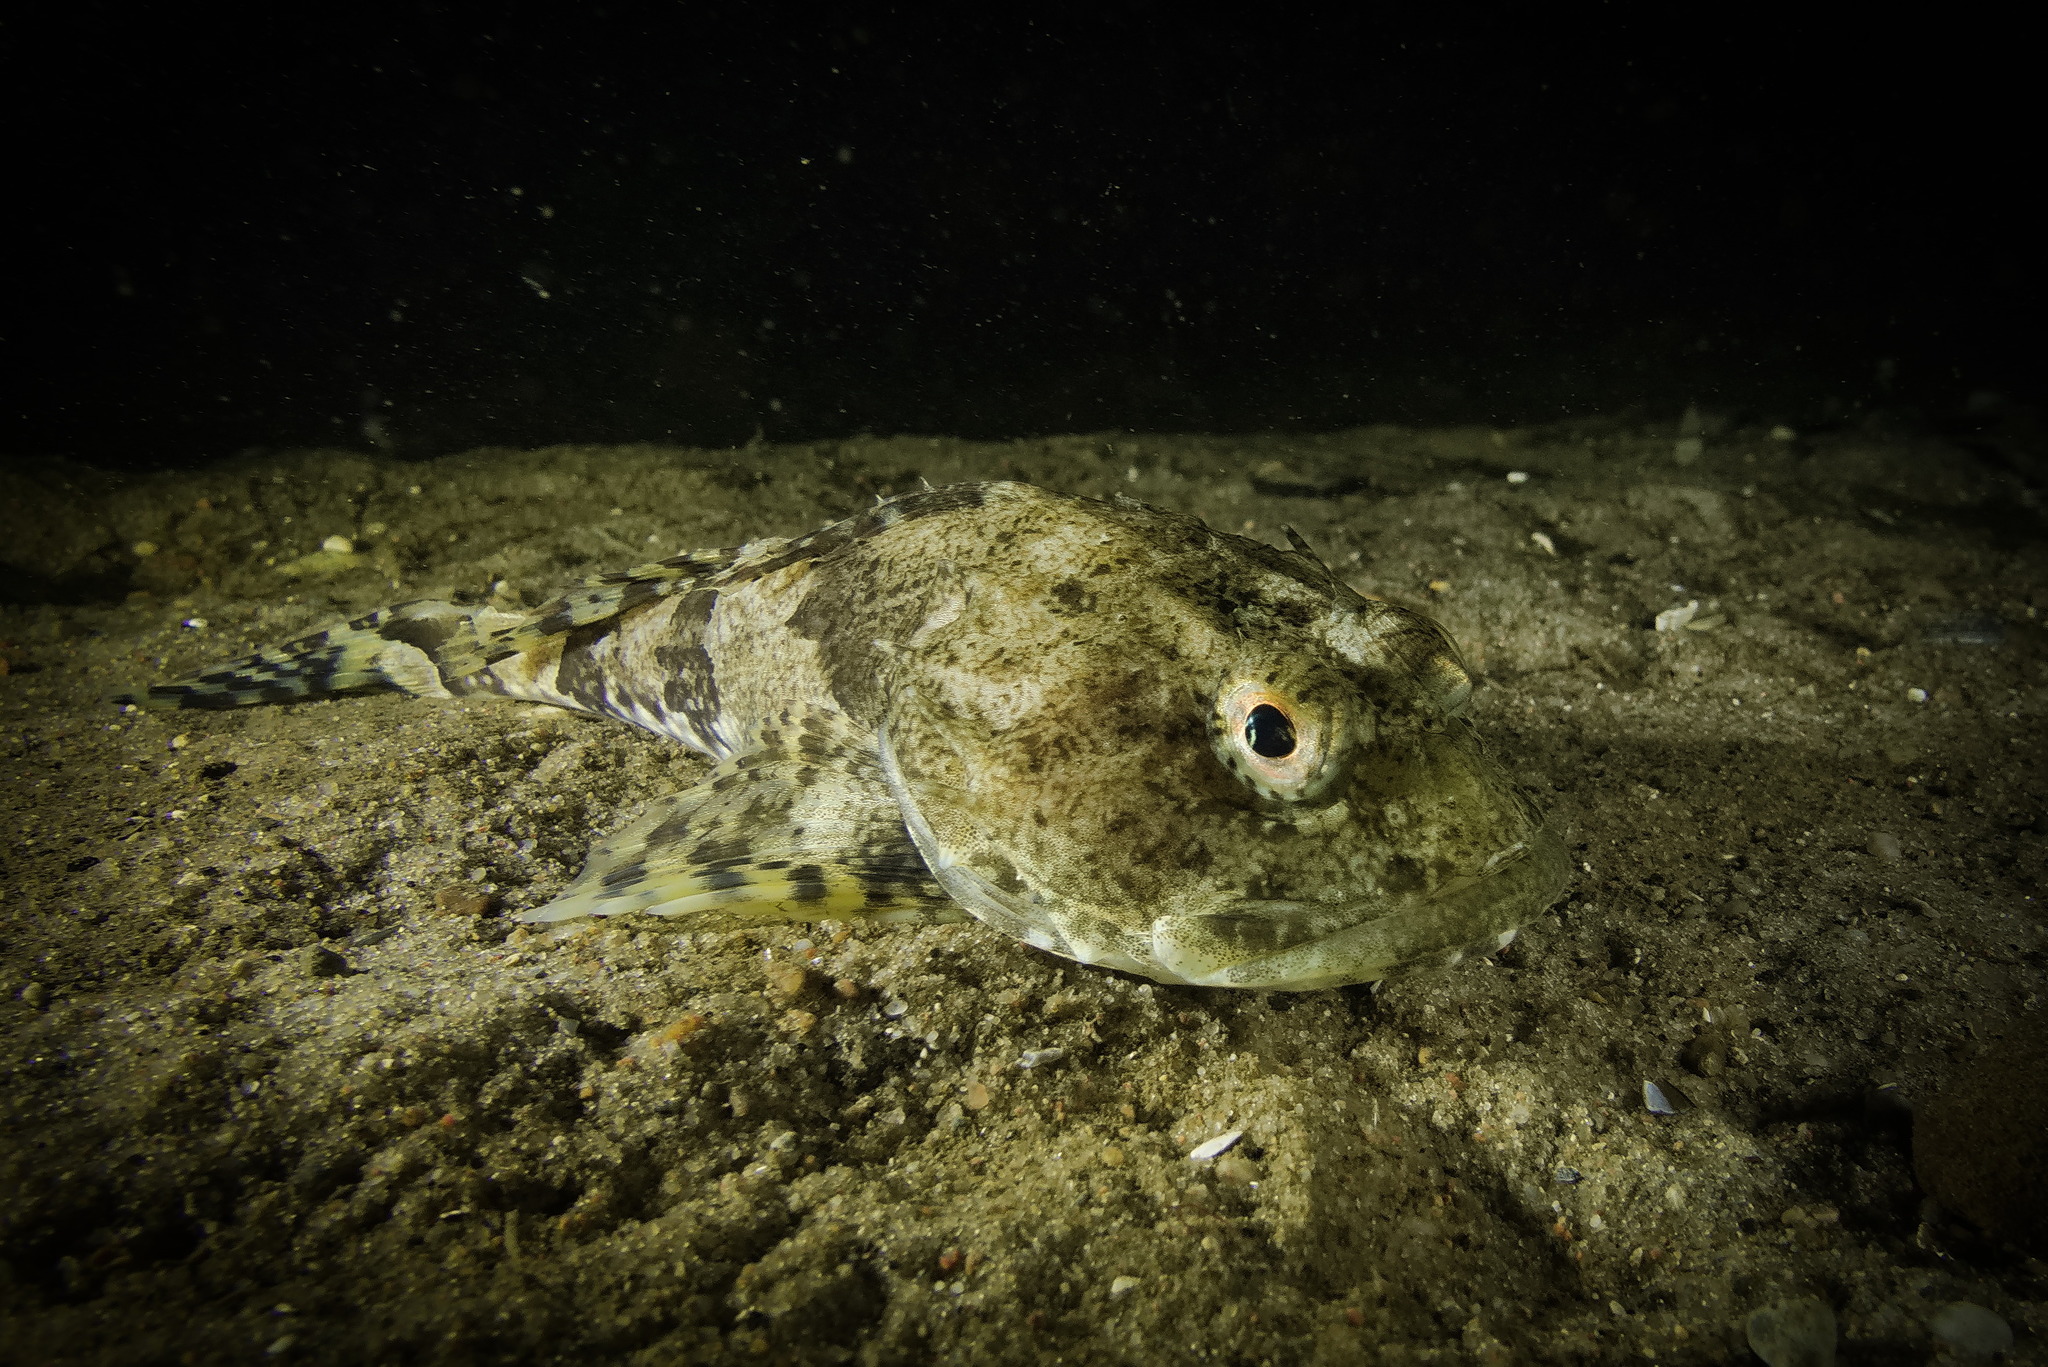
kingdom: Animalia
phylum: Chordata
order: Scorpaeniformes
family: Cottidae
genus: Myoxocephalus
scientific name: Myoxocephalus scorpius
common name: Shorthorn sculpin
